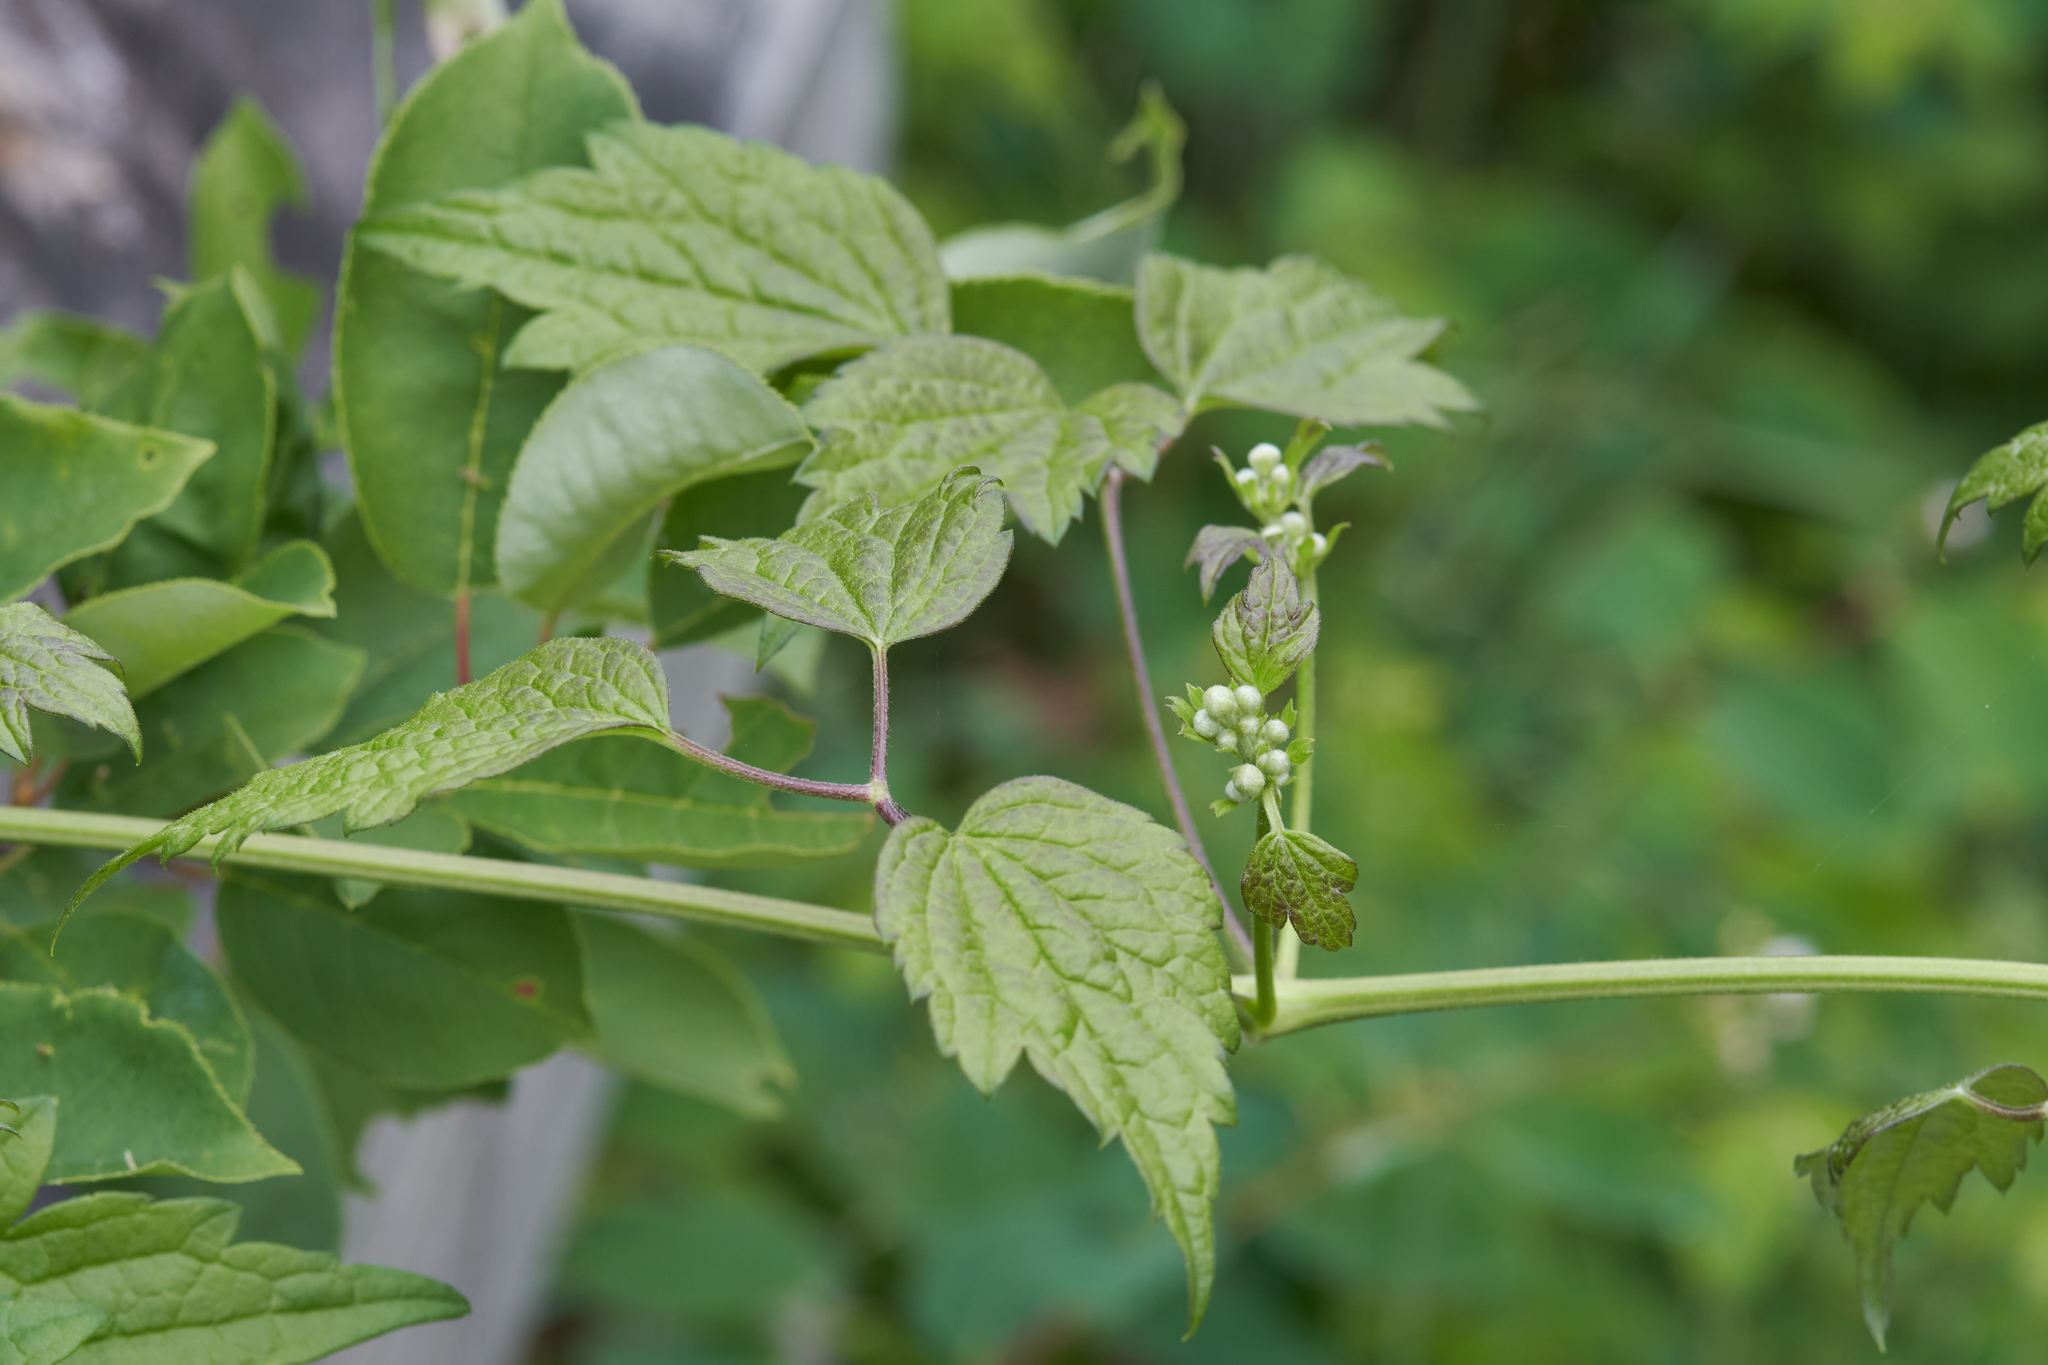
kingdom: Plantae
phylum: Tracheophyta
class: Magnoliopsida
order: Ranunculales
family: Ranunculaceae
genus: Clematis
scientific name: Clematis virginiana
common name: Virgin's-bower
